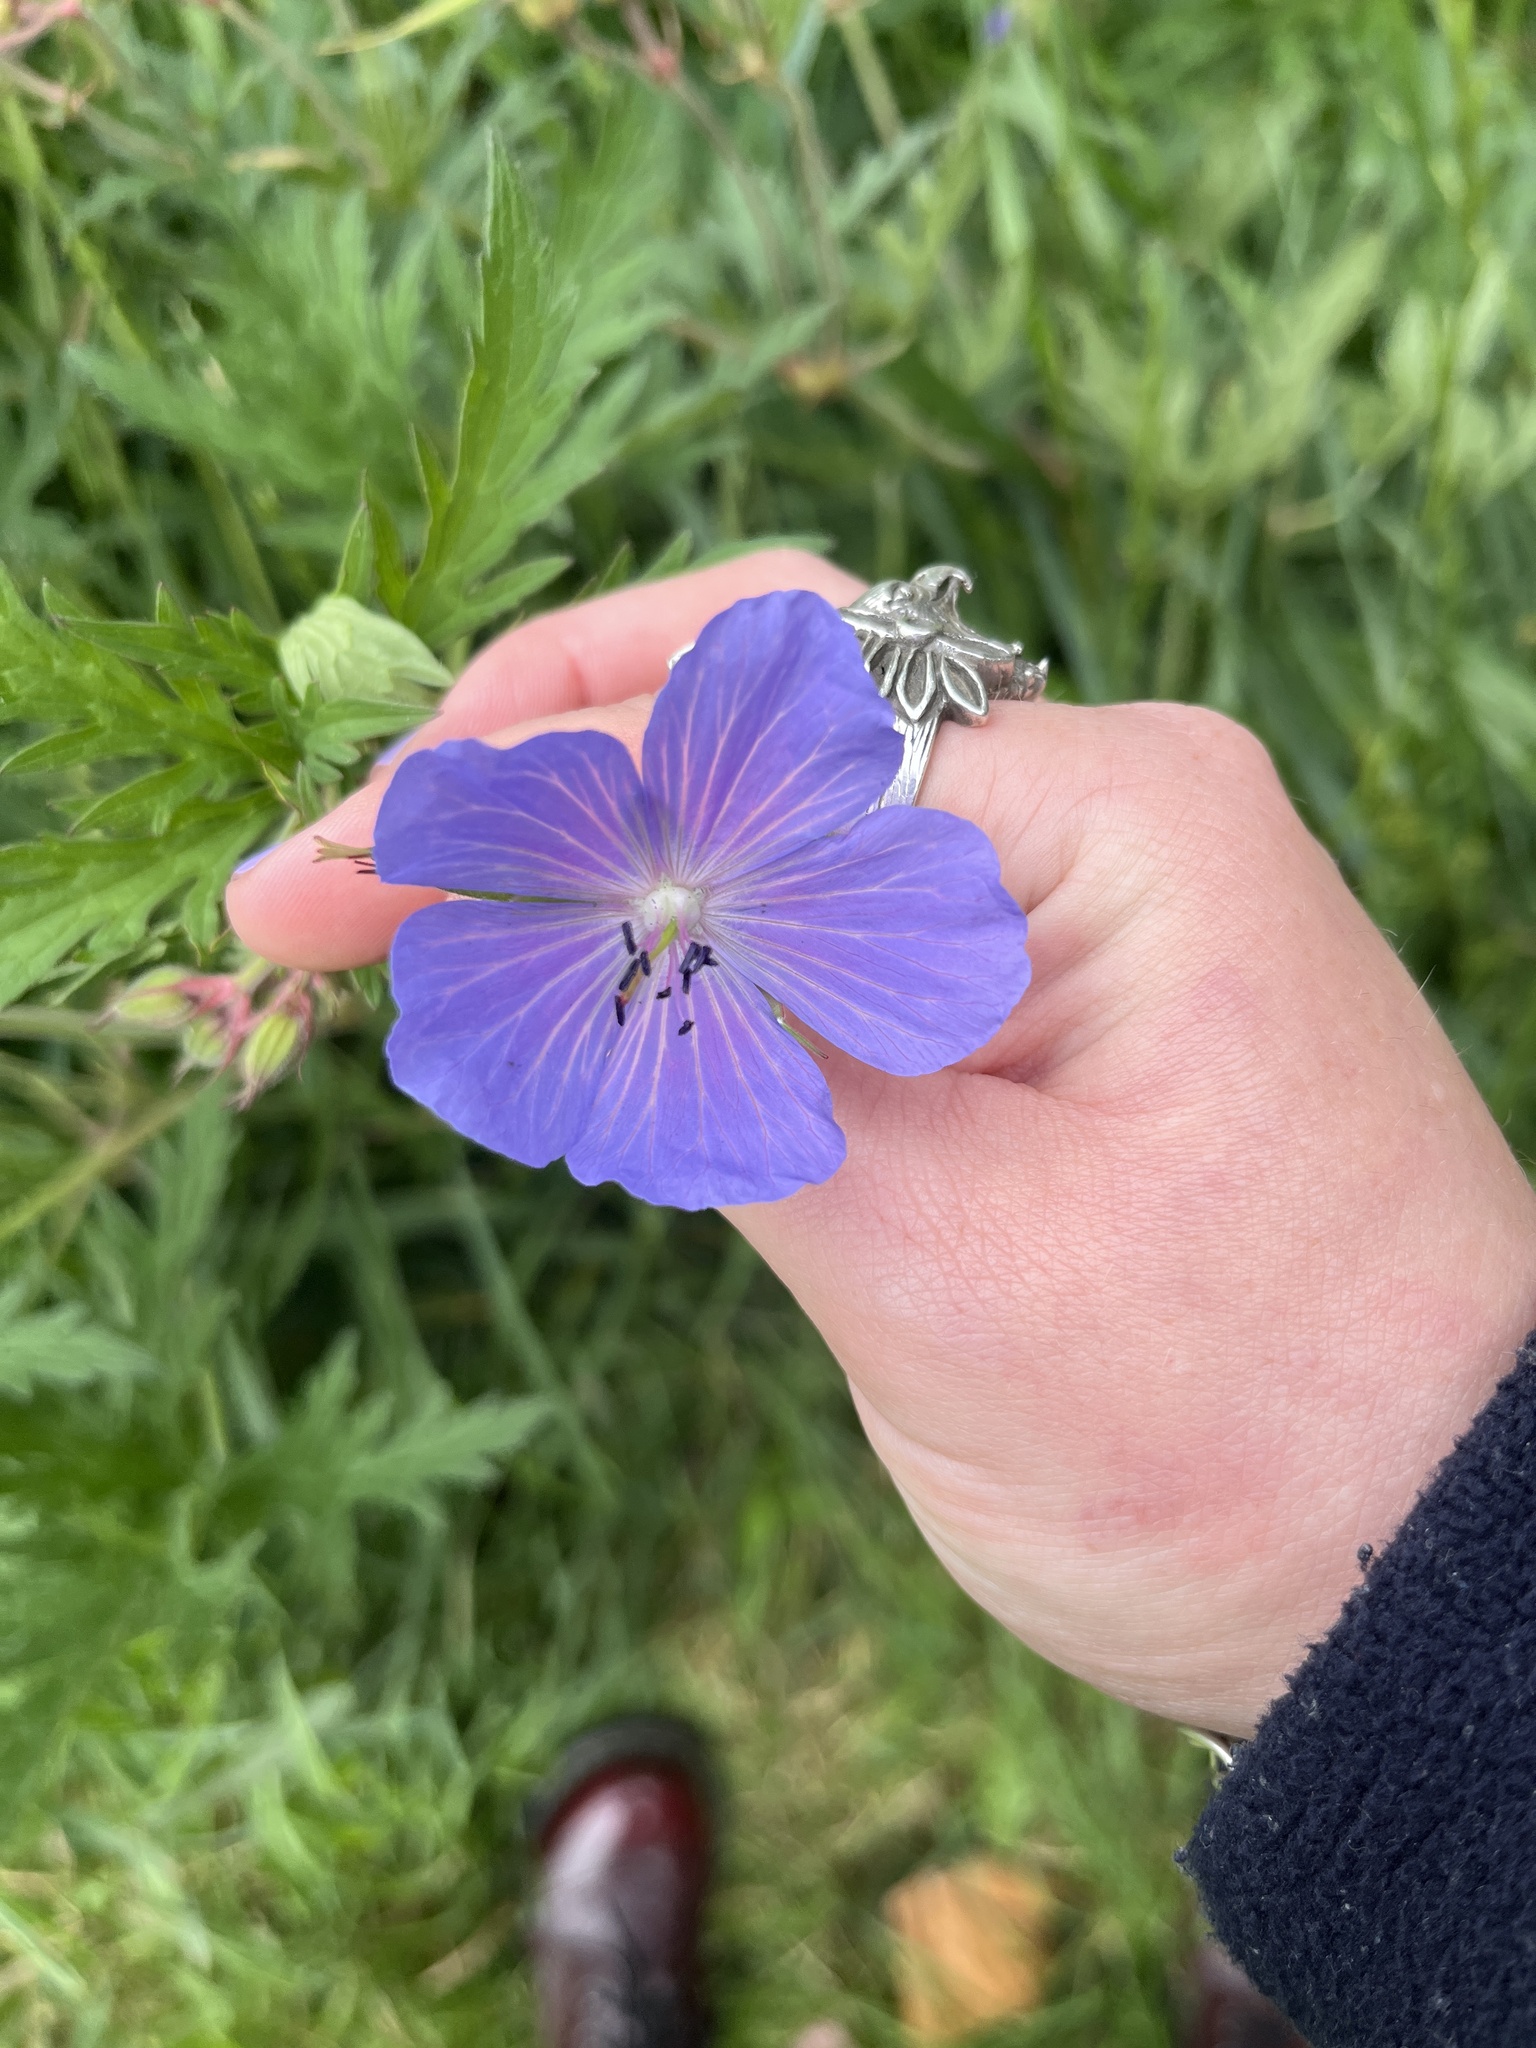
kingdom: Plantae
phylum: Tracheophyta
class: Magnoliopsida
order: Geraniales
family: Geraniaceae
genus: Geranium
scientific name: Geranium pratense
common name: Meadow crane's-bill
